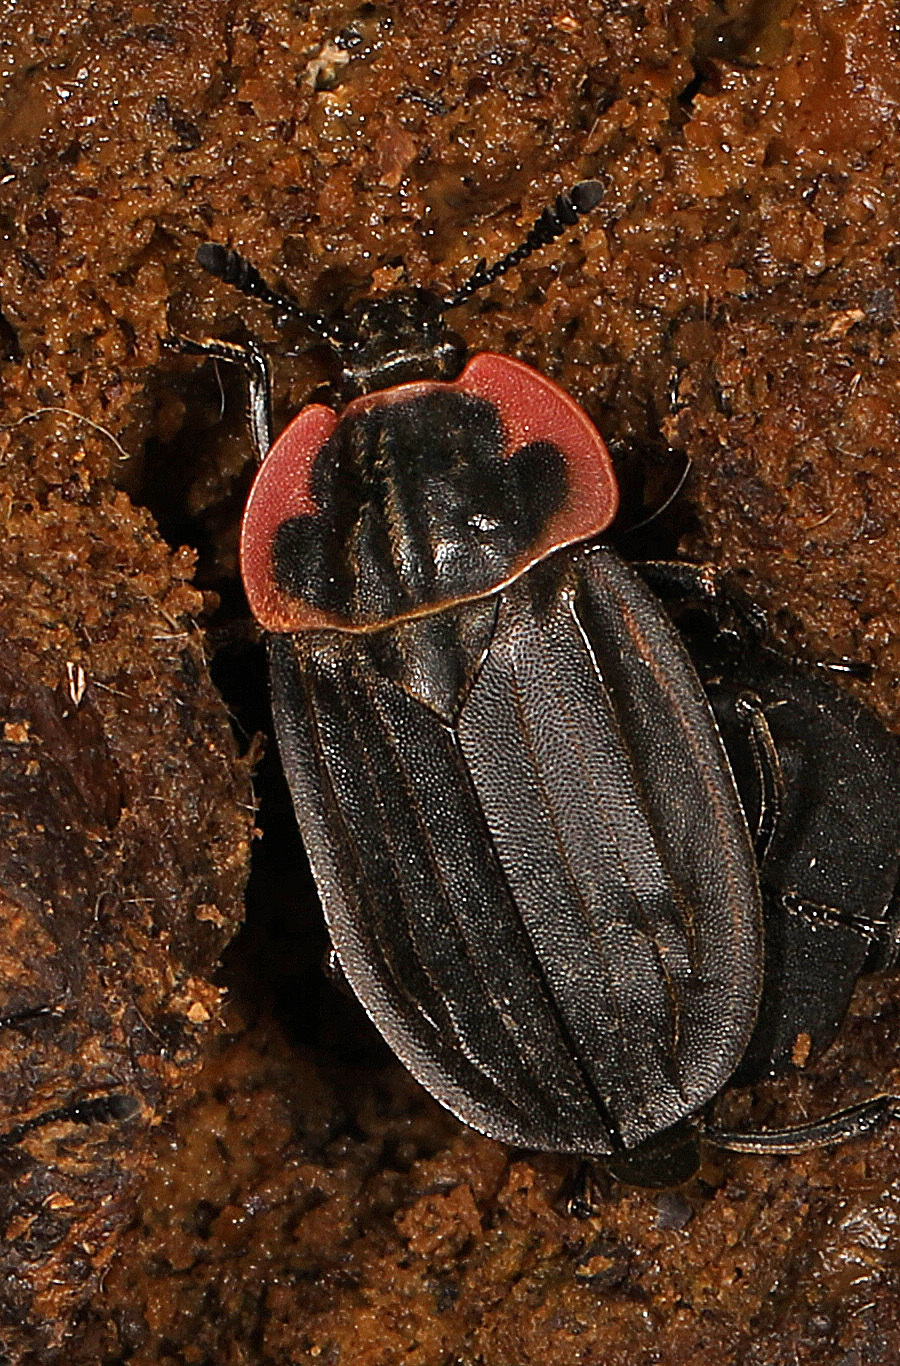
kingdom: Animalia
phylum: Arthropoda
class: Insecta
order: Coleoptera
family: Staphylinidae
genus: Oiceoptoma
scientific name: Oiceoptoma noveboracense
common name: Margined carrion beetle
